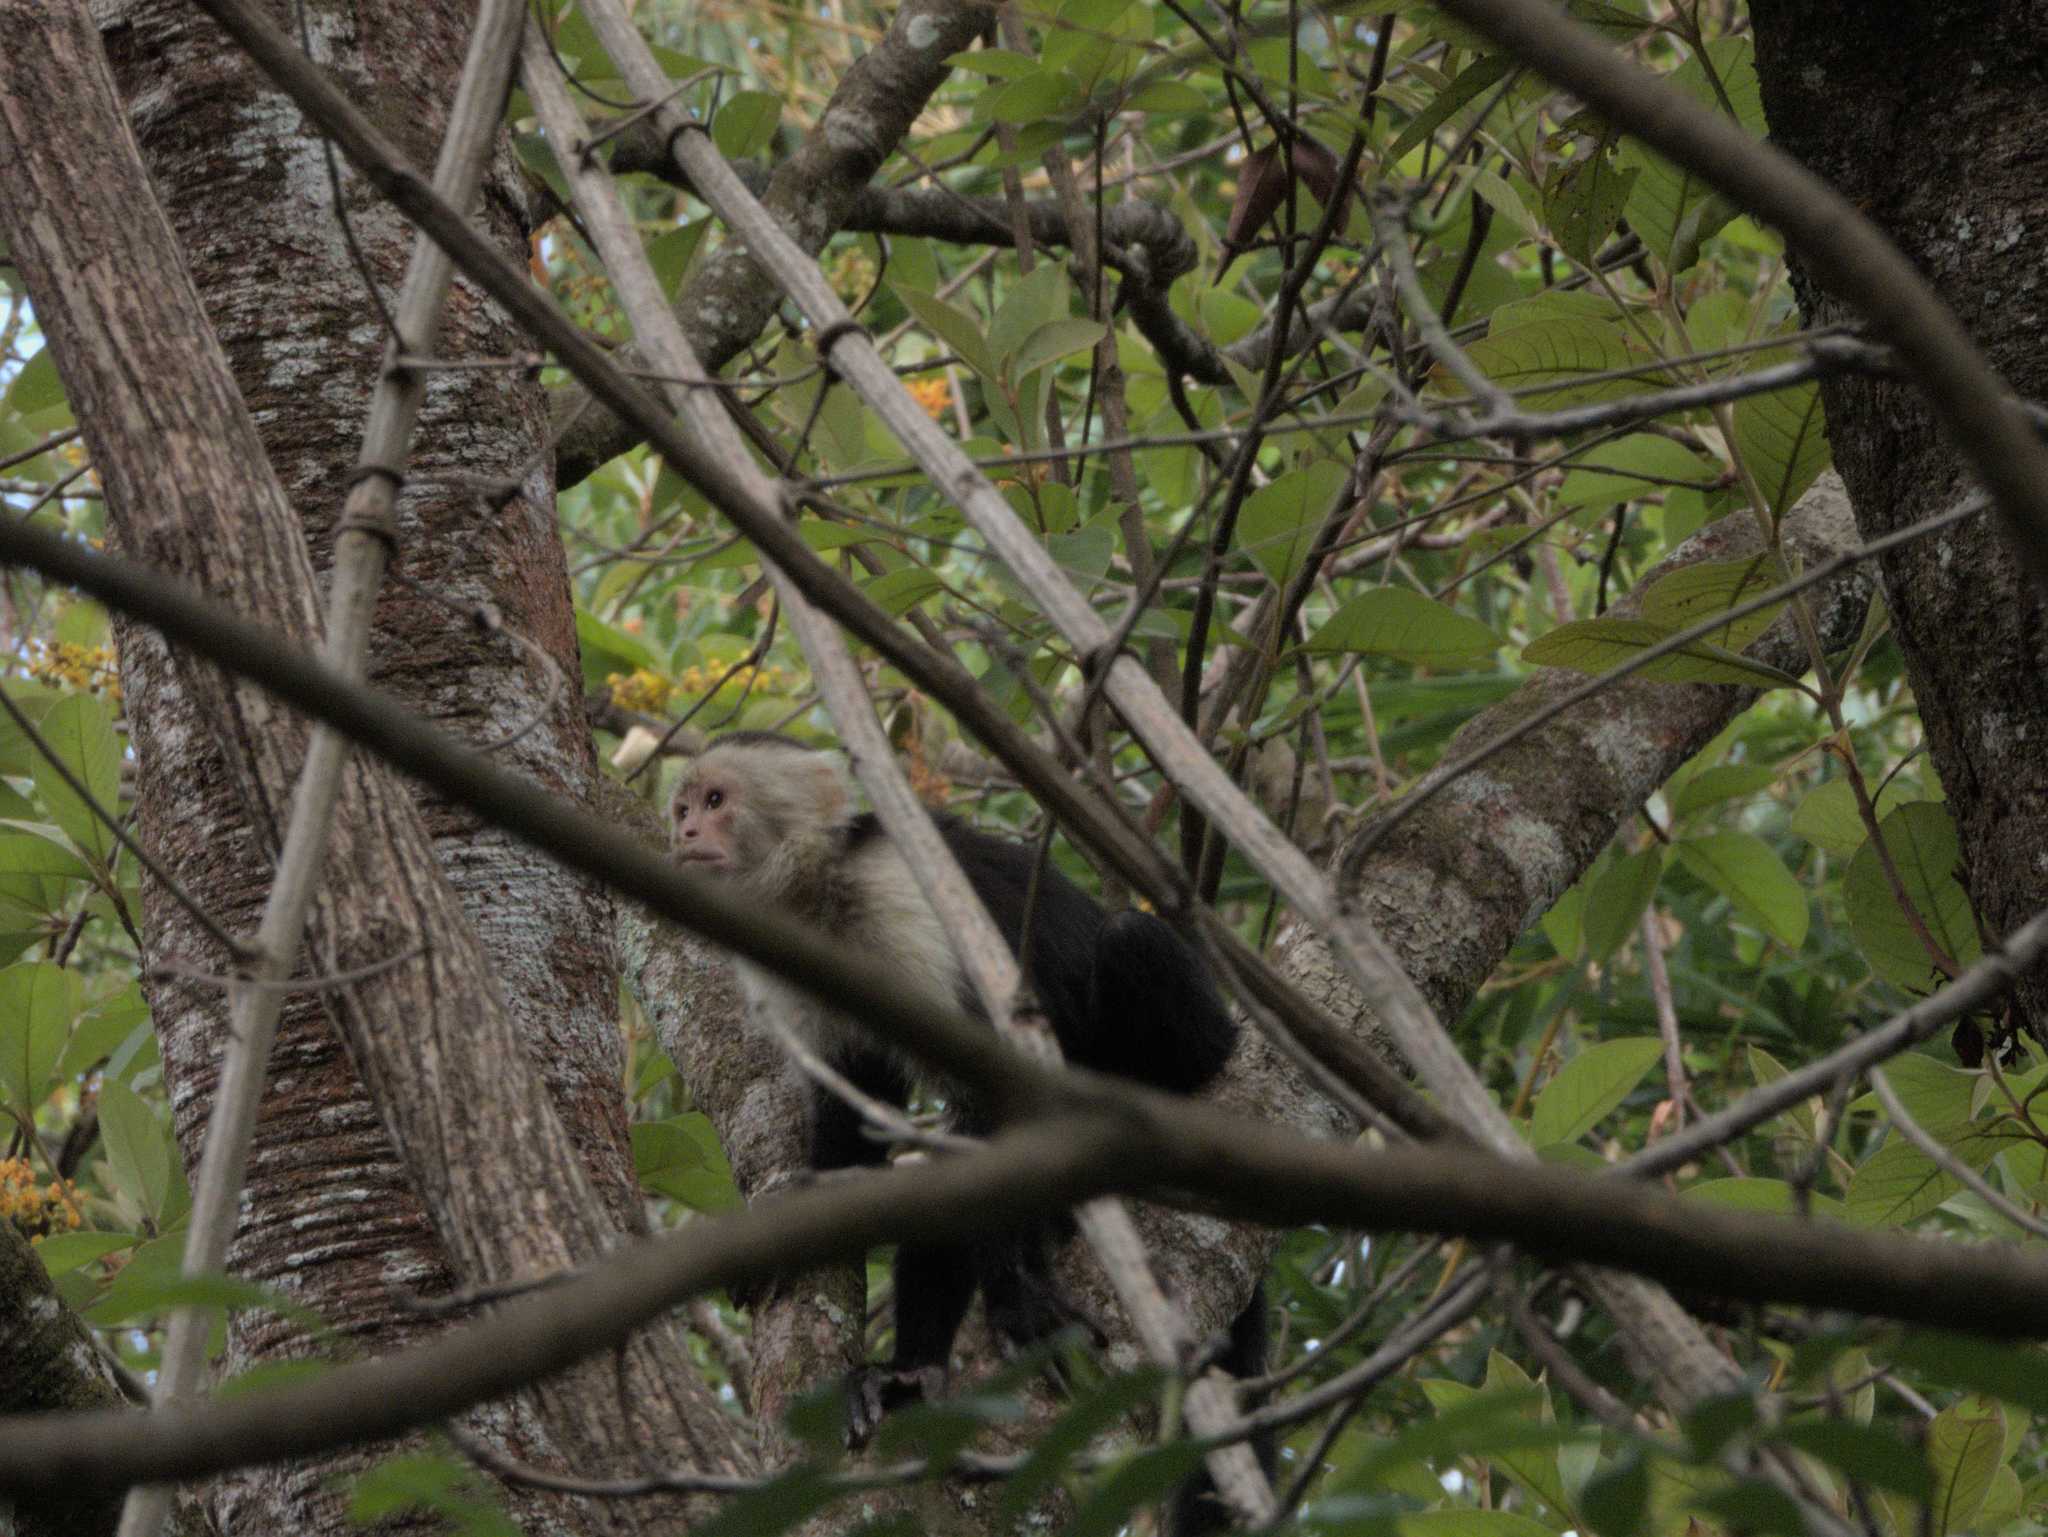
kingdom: Animalia
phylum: Chordata
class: Mammalia
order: Primates
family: Cebidae
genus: Cebus
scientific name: Cebus imitator
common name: Panamanian white-faced capuchin
